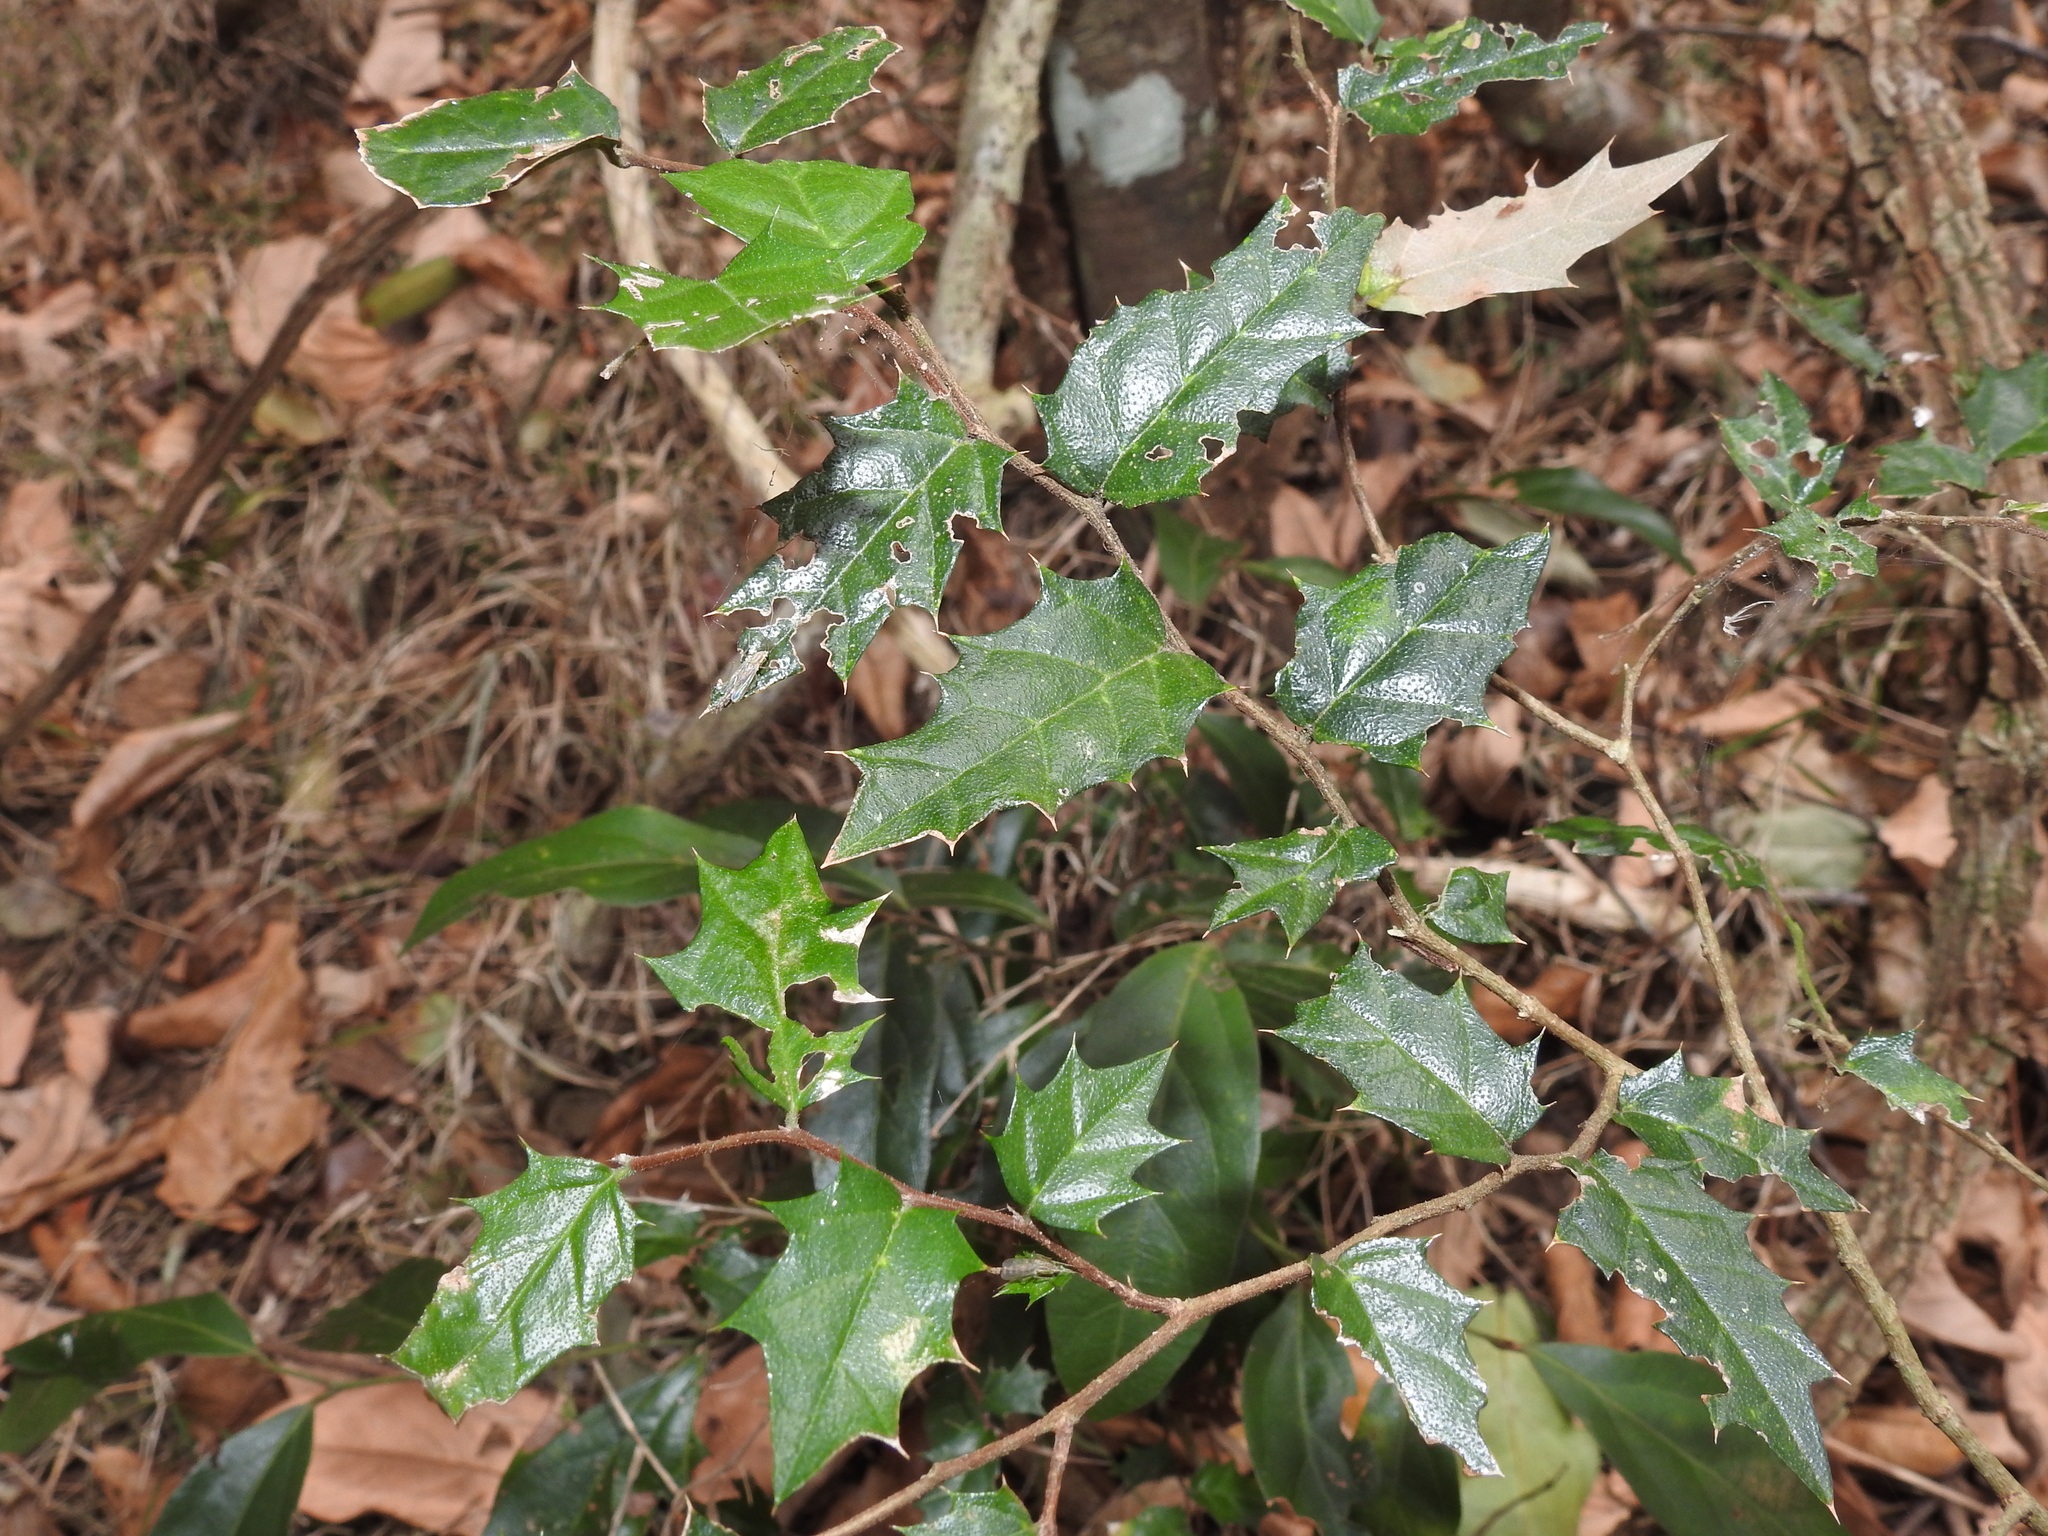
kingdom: Plantae
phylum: Tracheophyta
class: Magnoliopsida
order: Rosales
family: Cannabaceae
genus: Aphananthe
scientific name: Aphananthe philippinensis
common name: Wild holly
